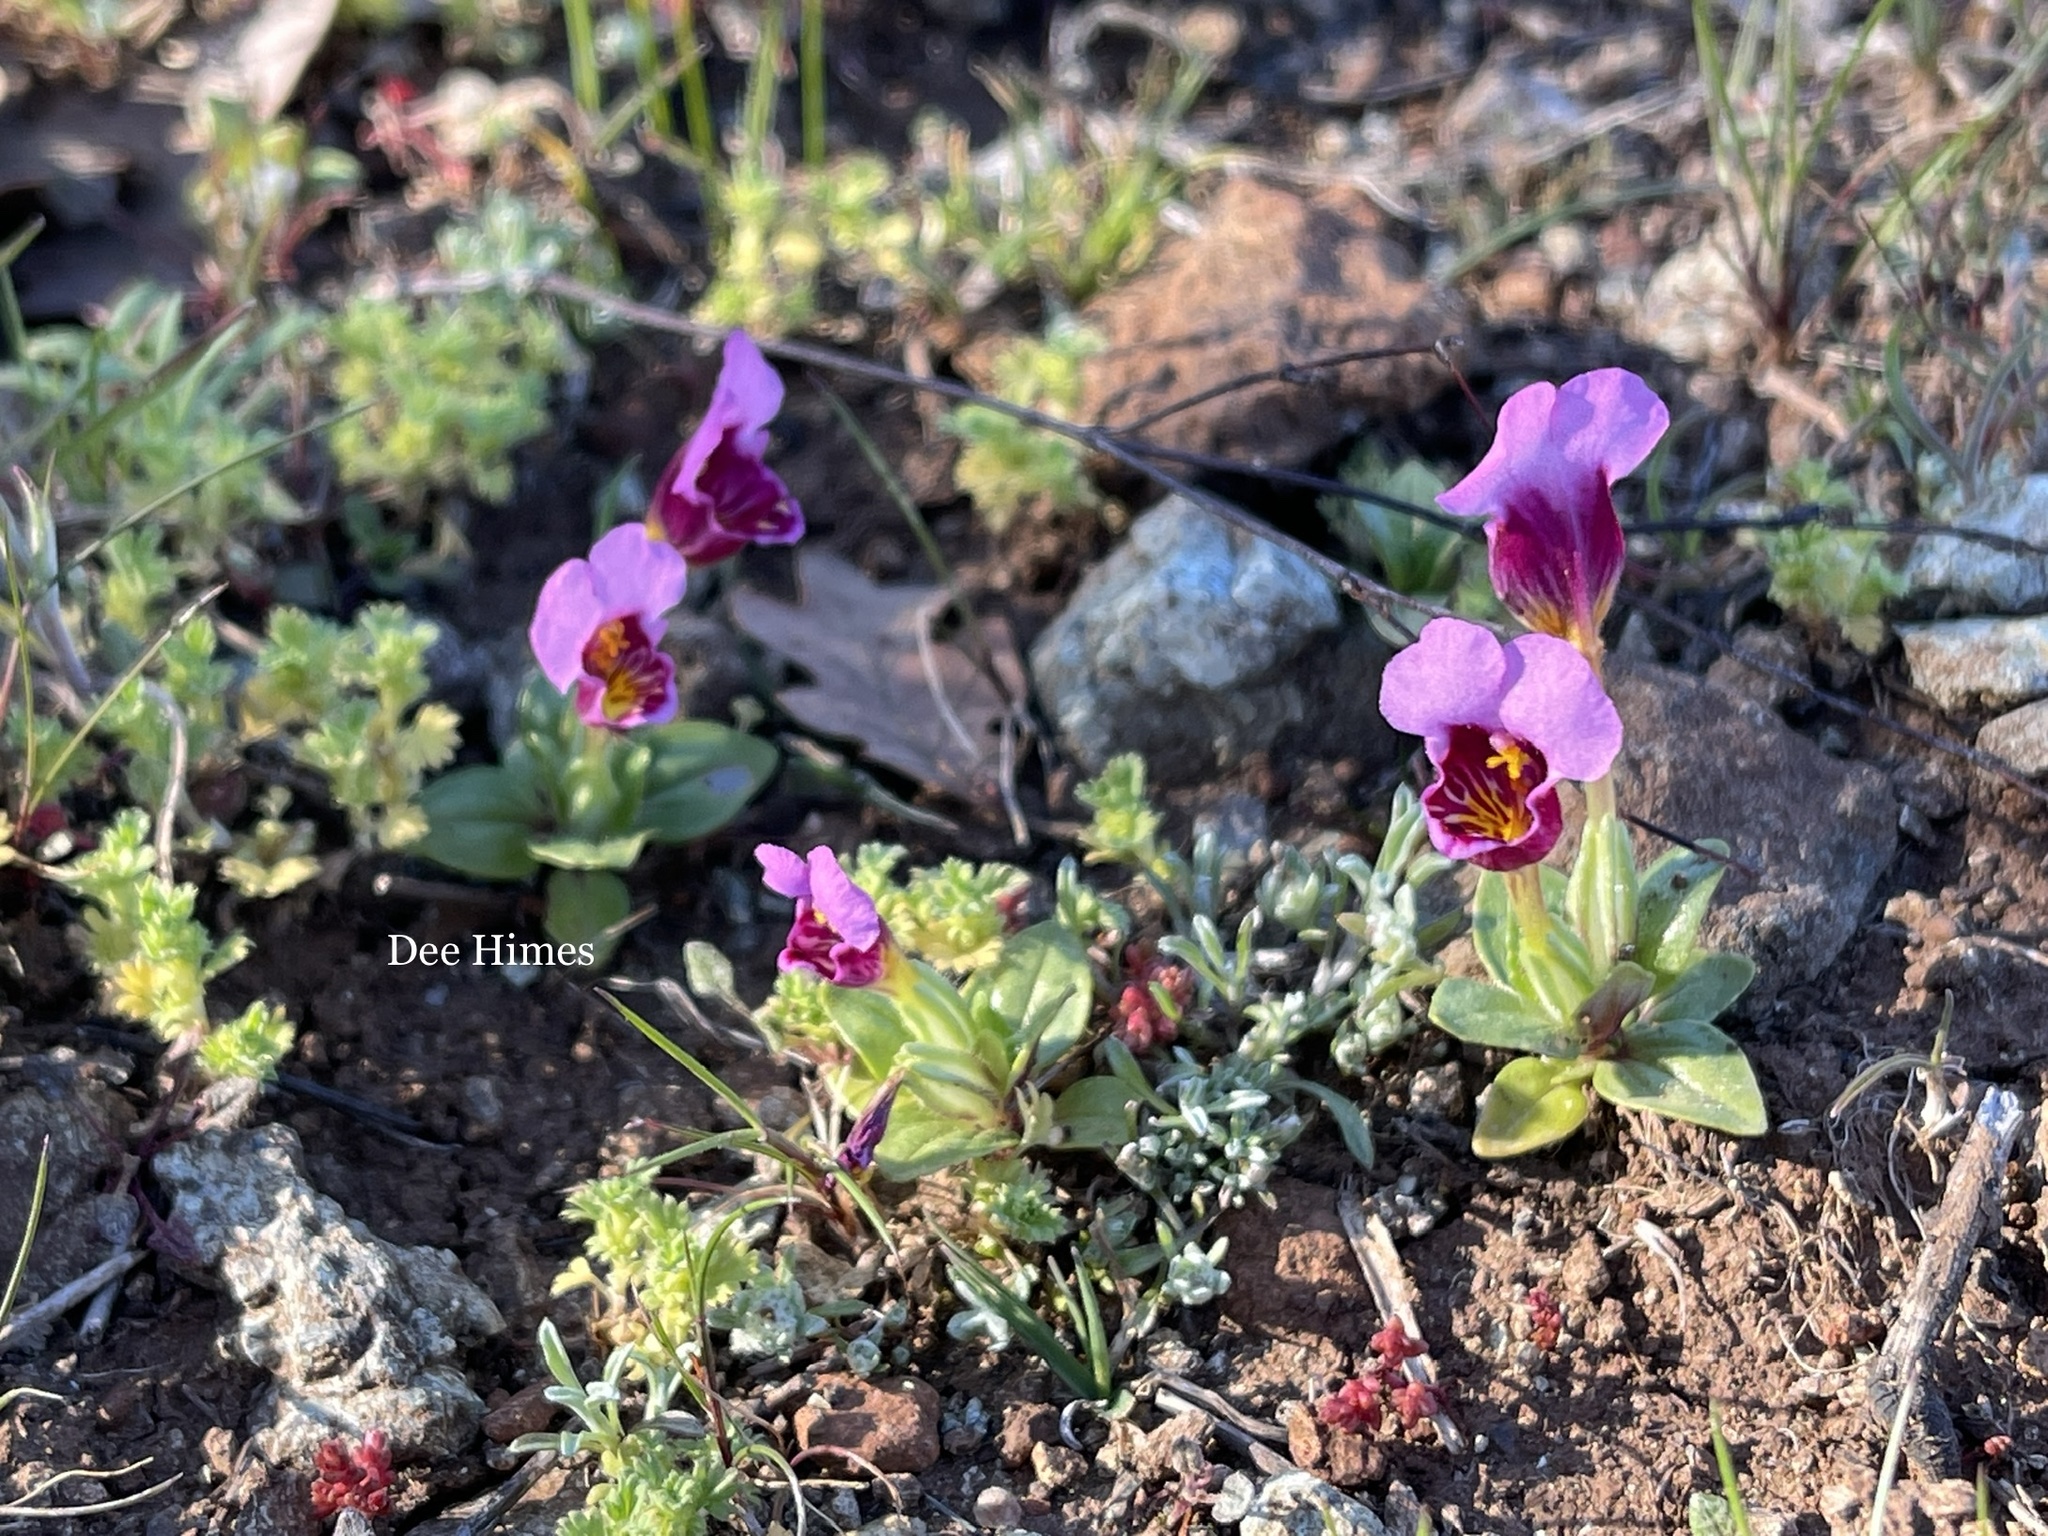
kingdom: Plantae
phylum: Tracheophyta
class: Magnoliopsida
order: Lamiales
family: Phrymaceae
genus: Diplacus
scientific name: Diplacus douglasii
